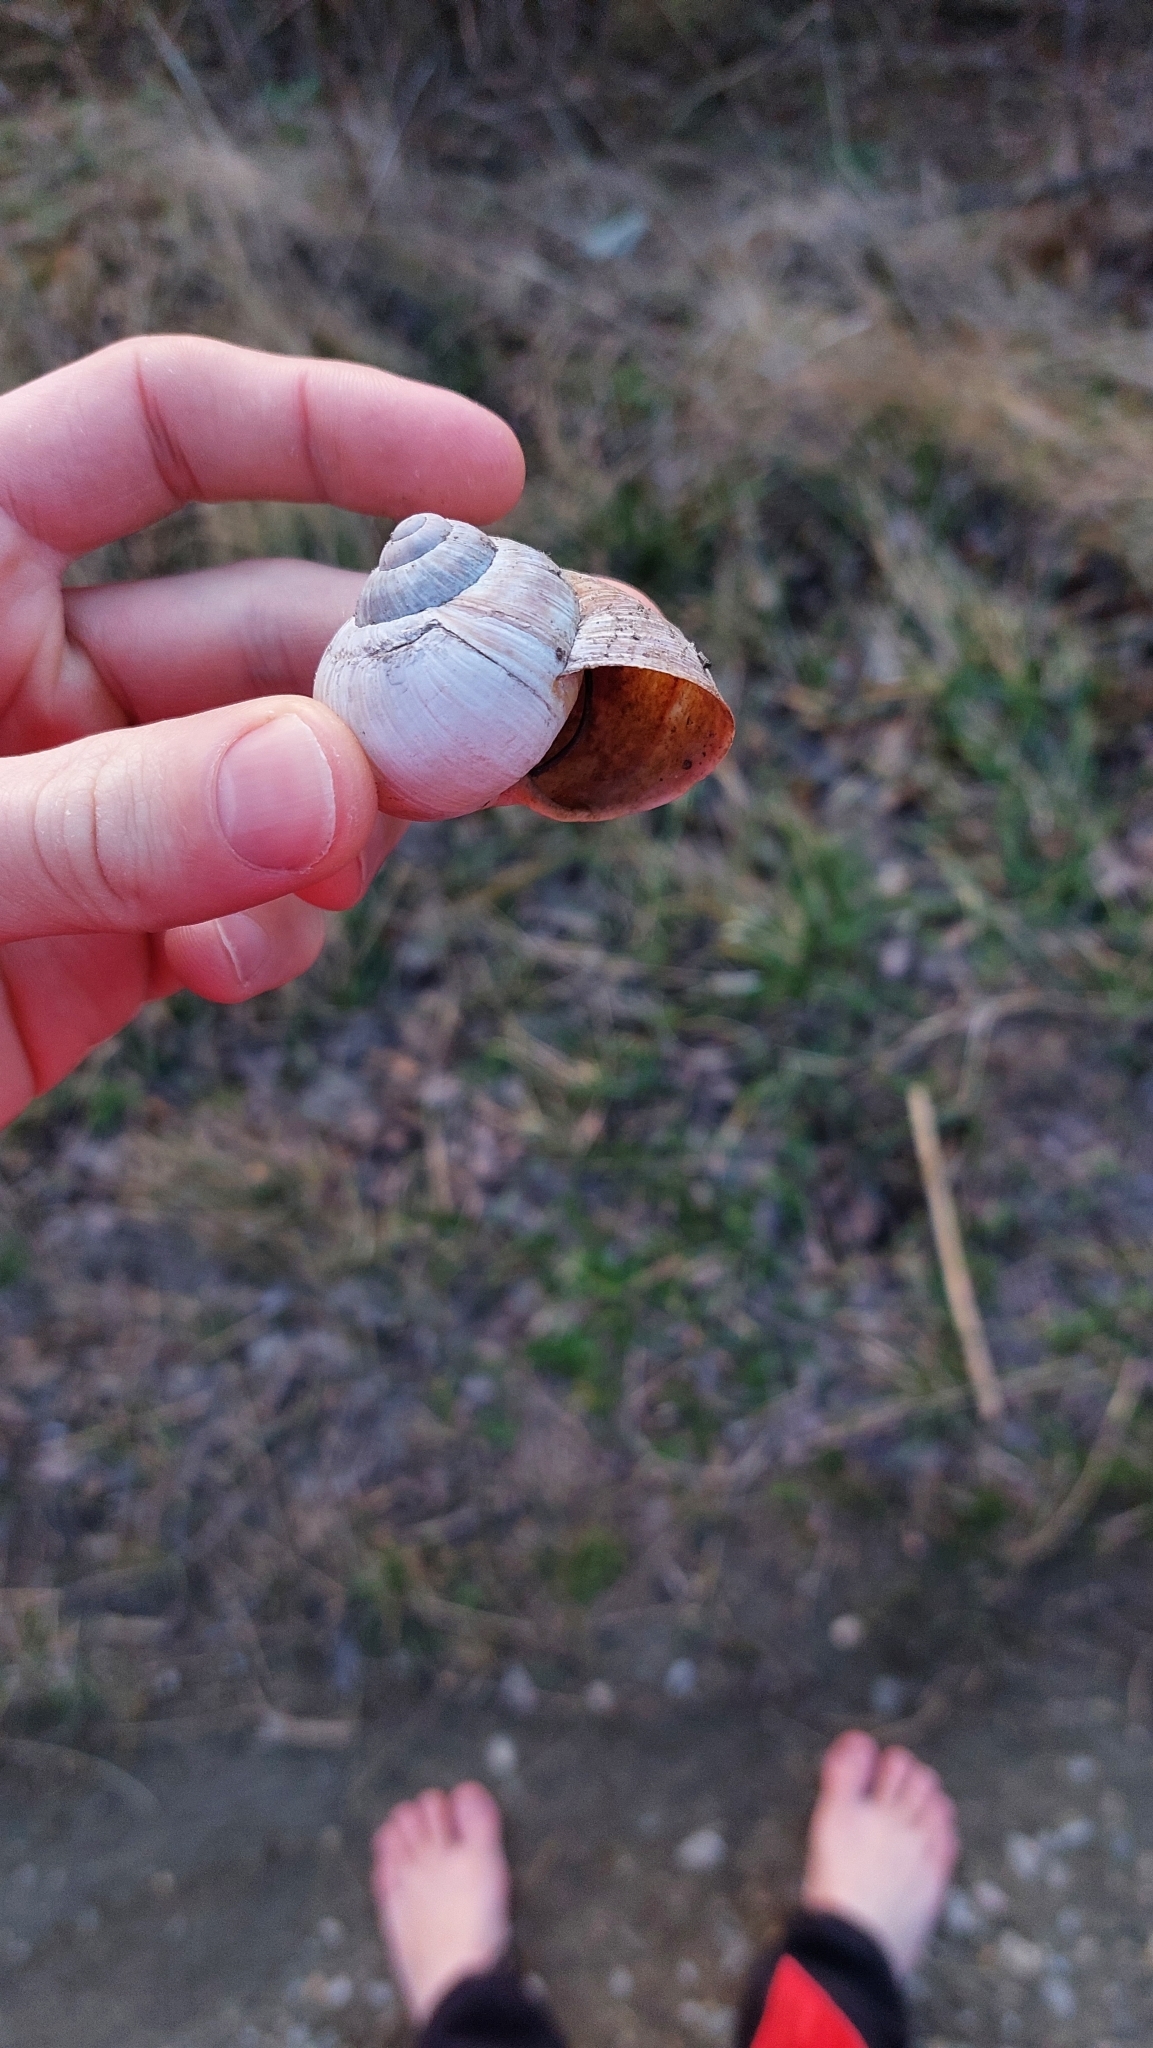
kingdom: Animalia
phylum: Mollusca
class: Gastropoda
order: Stylommatophora
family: Helicidae
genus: Helix
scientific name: Helix pomatia
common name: Roman snail
